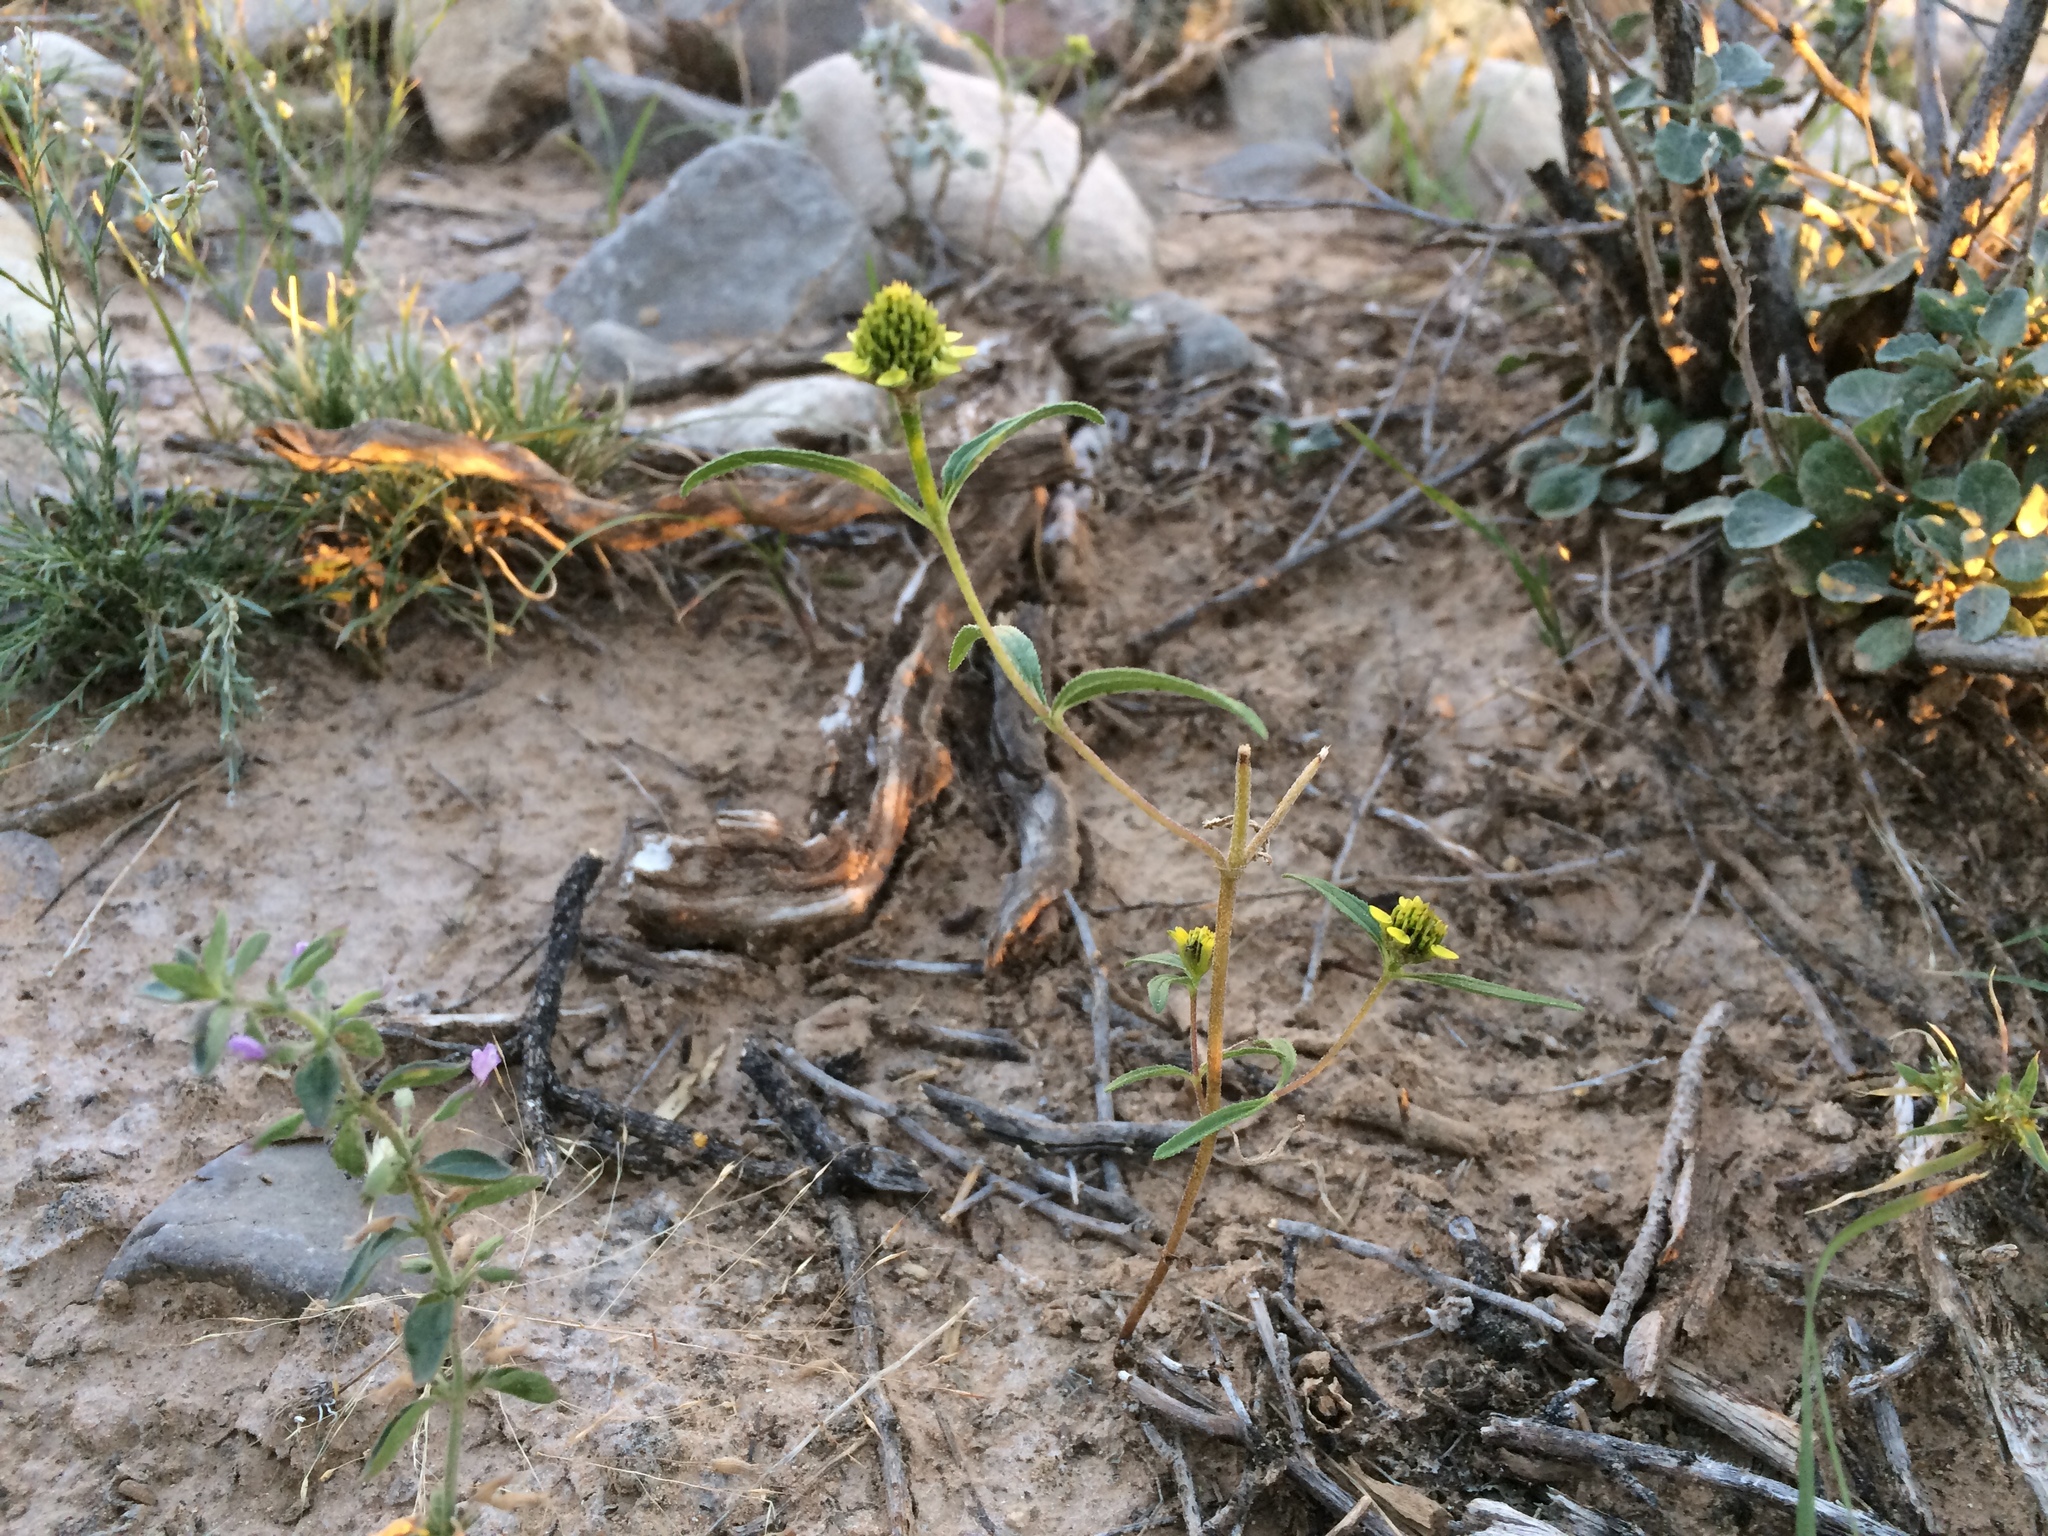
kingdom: Plantae
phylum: Tracheophyta
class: Magnoliopsida
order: Asterales
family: Asteraceae
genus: Sanvitalia
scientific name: Sanvitalia abertii
